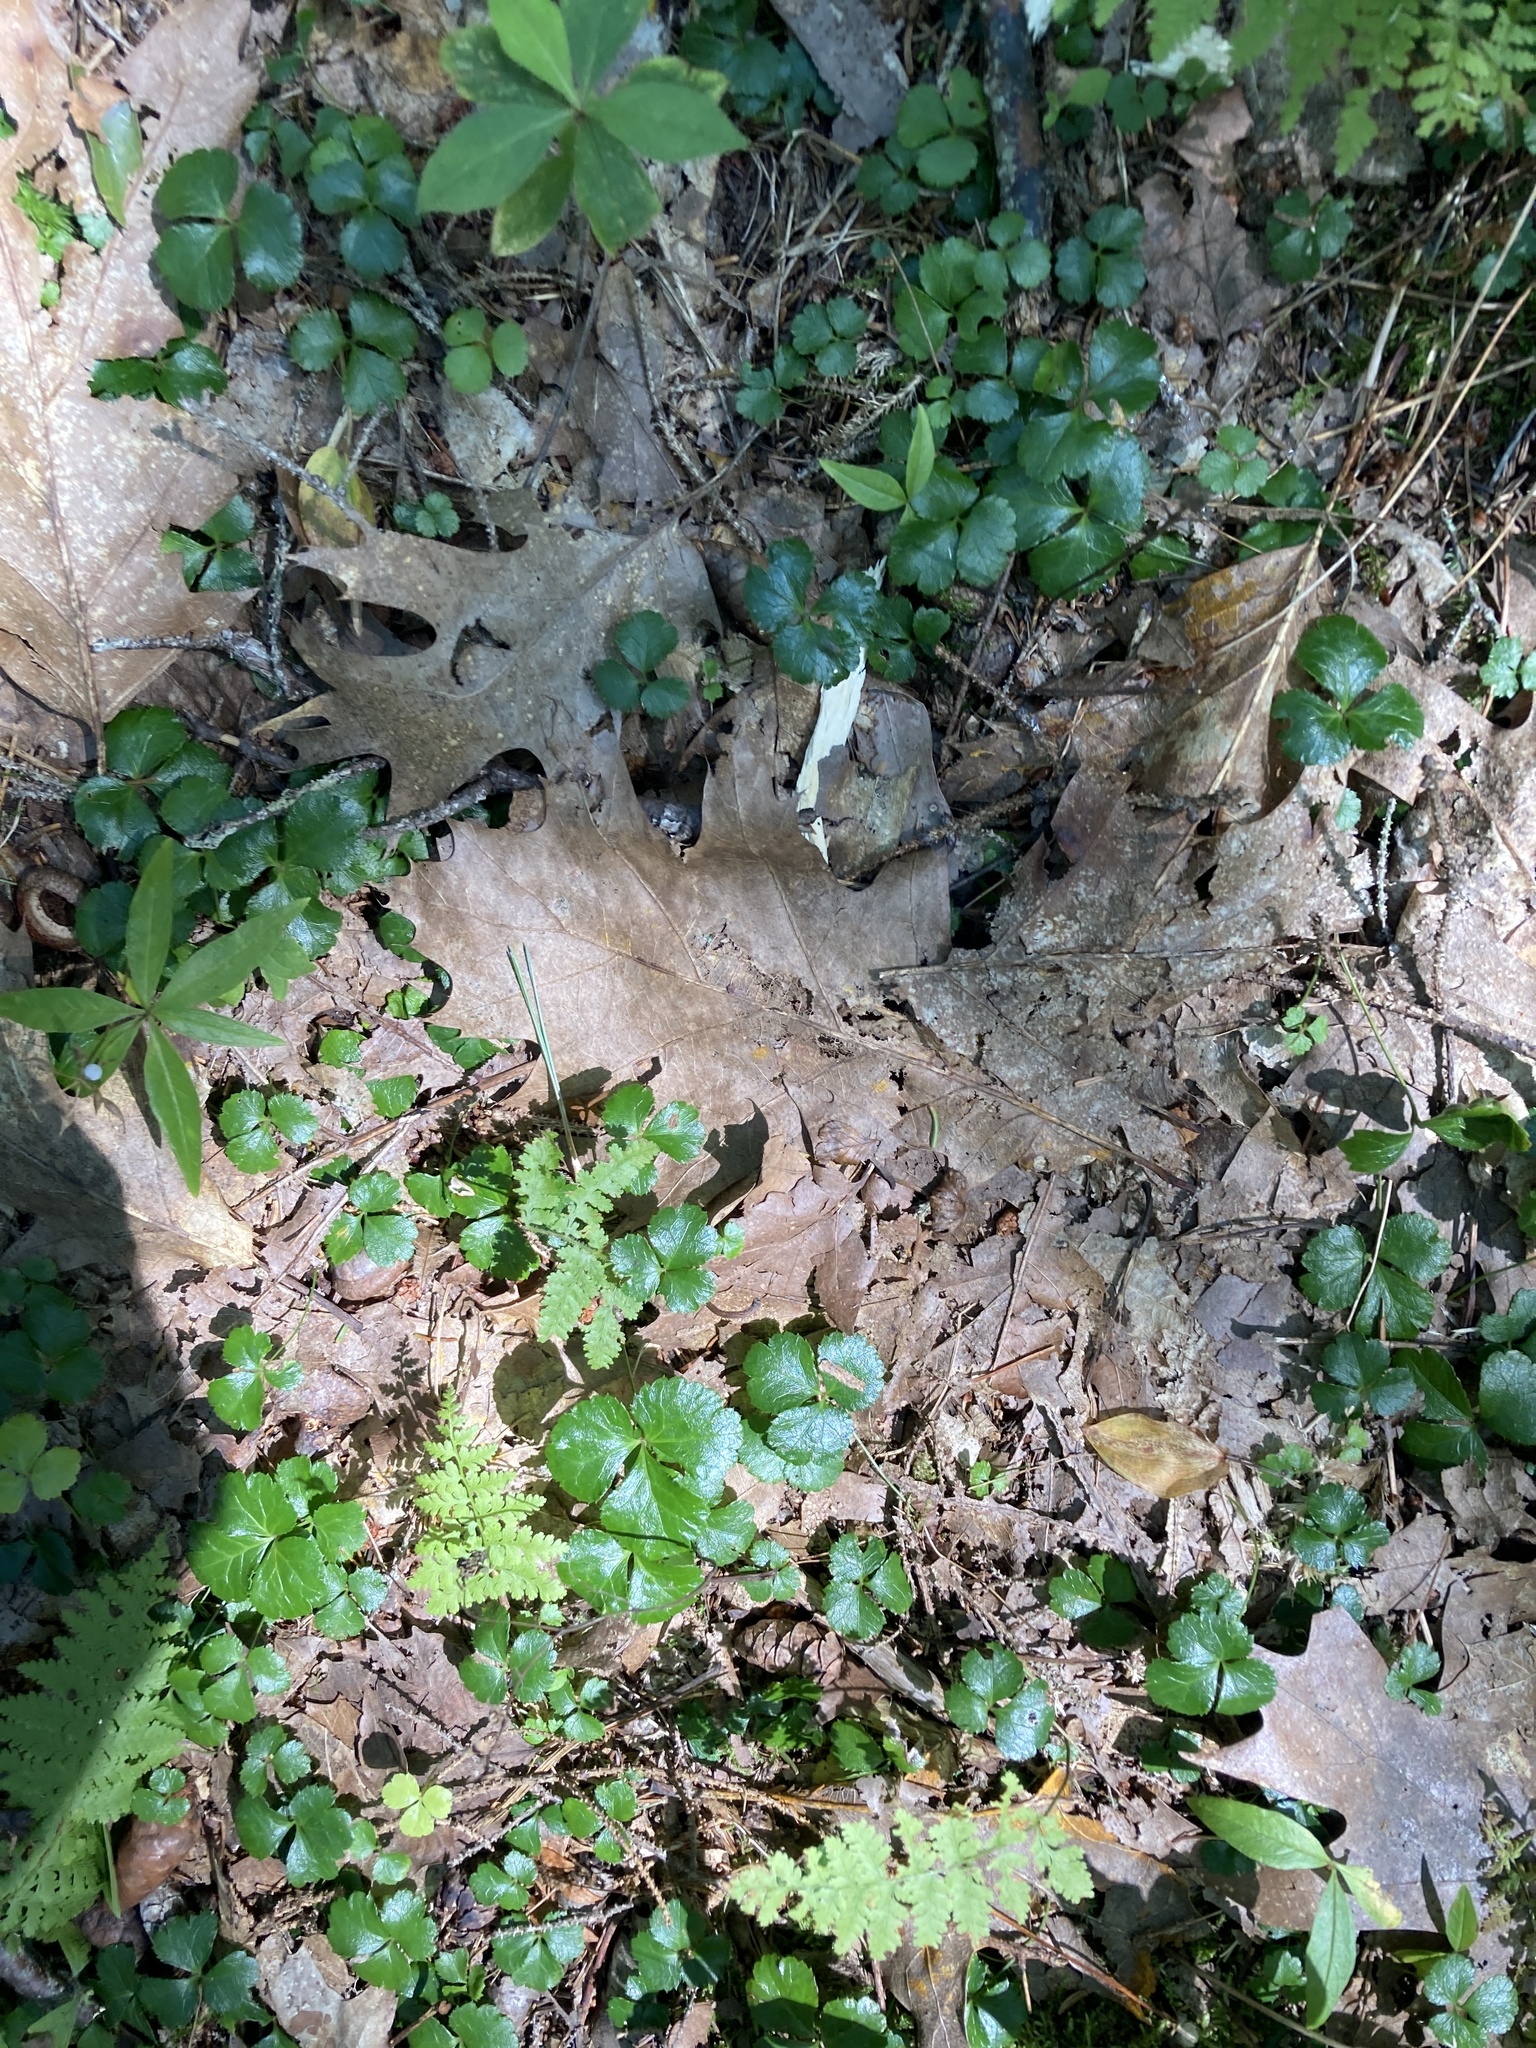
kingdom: Plantae
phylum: Tracheophyta
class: Magnoliopsida
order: Ranunculales
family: Ranunculaceae
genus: Coptis
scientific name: Coptis trifolia
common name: Canker-root
